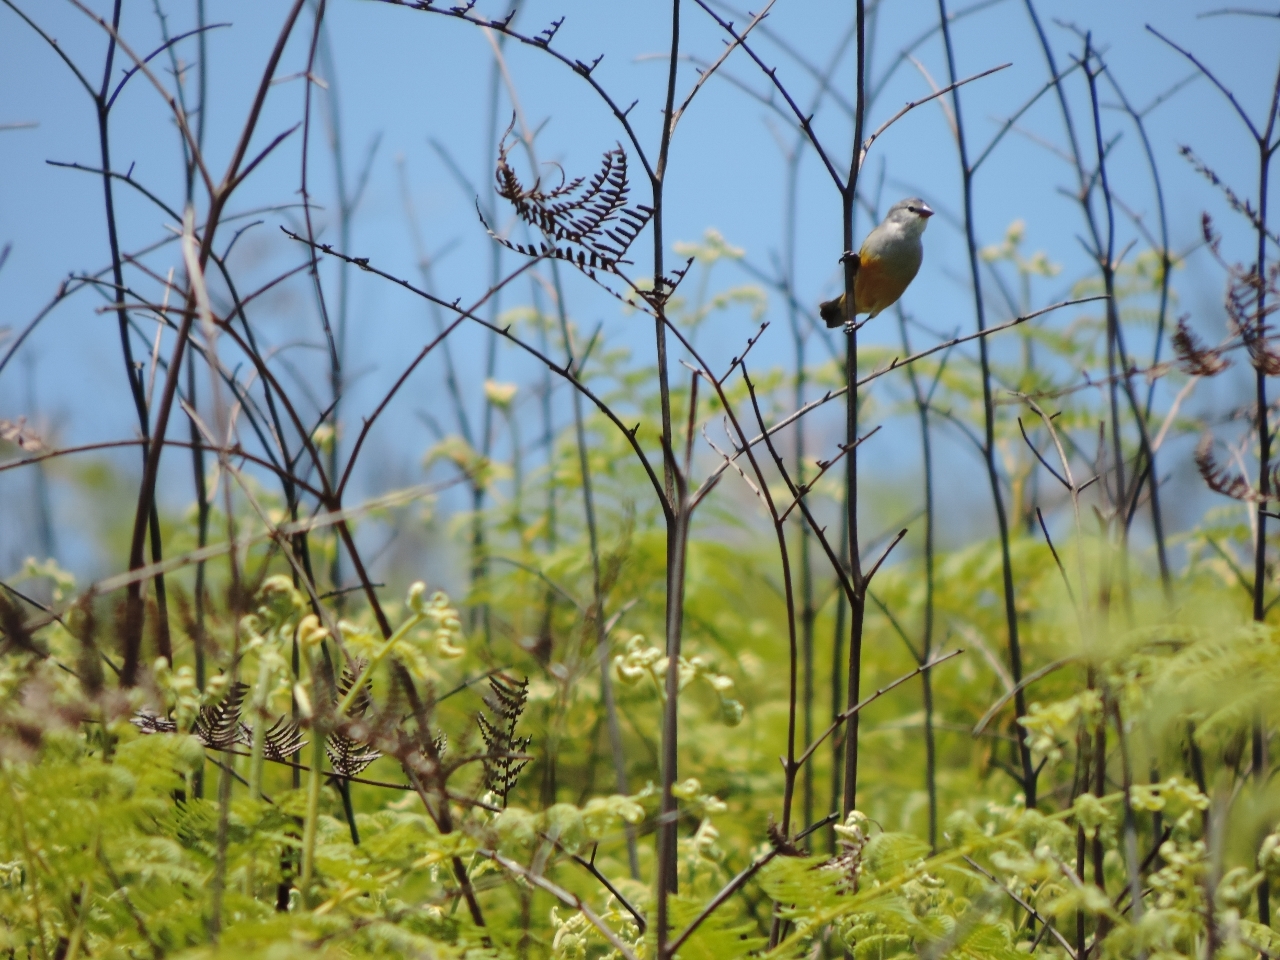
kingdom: Animalia
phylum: Chordata
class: Aves
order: Passeriformes
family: Estrildidae
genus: Coccopygia
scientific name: Coccopygia quartinia
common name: Yellow-bellied waxbill
